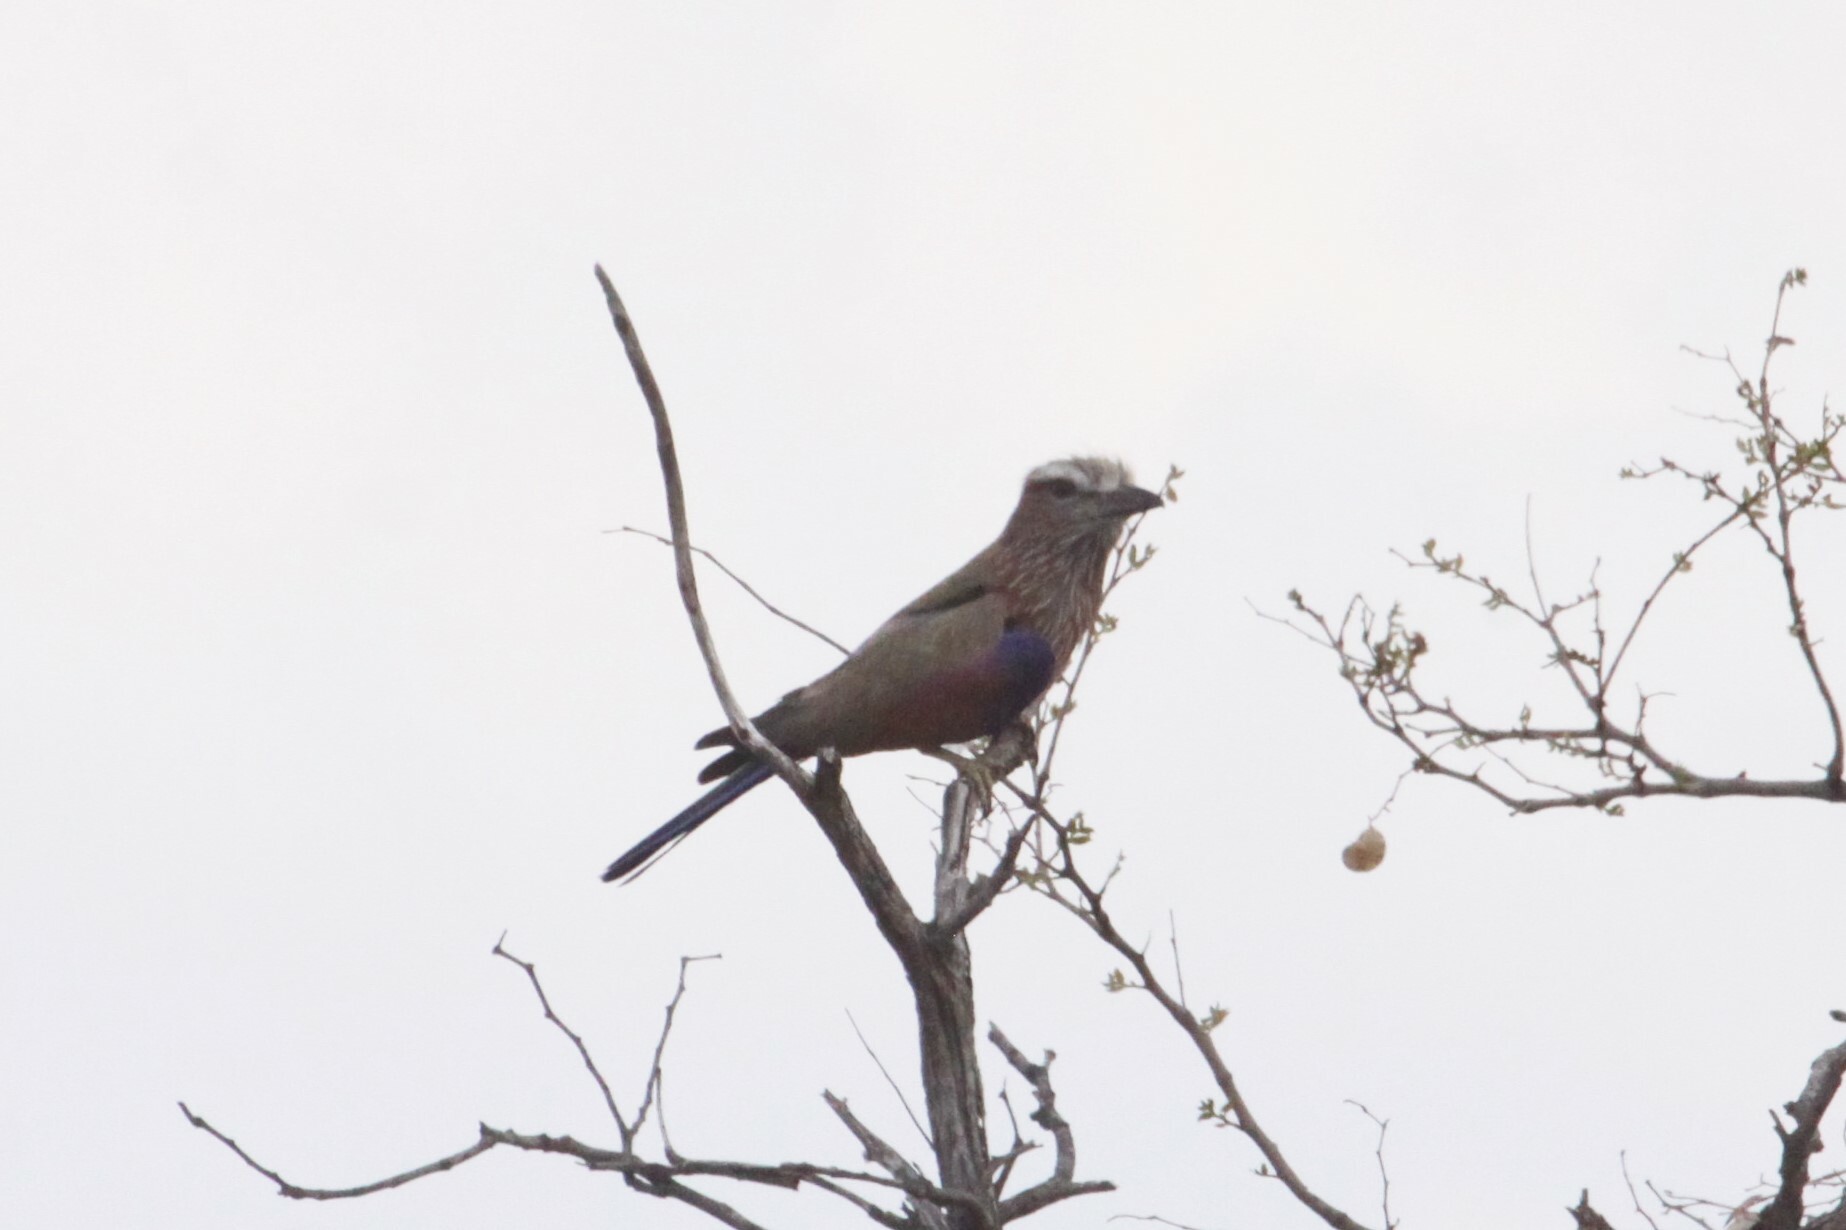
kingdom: Animalia
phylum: Chordata
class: Aves
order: Coraciiformes
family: Coraciidae
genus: Coracias
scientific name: Coracias naevius
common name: Purple roller
